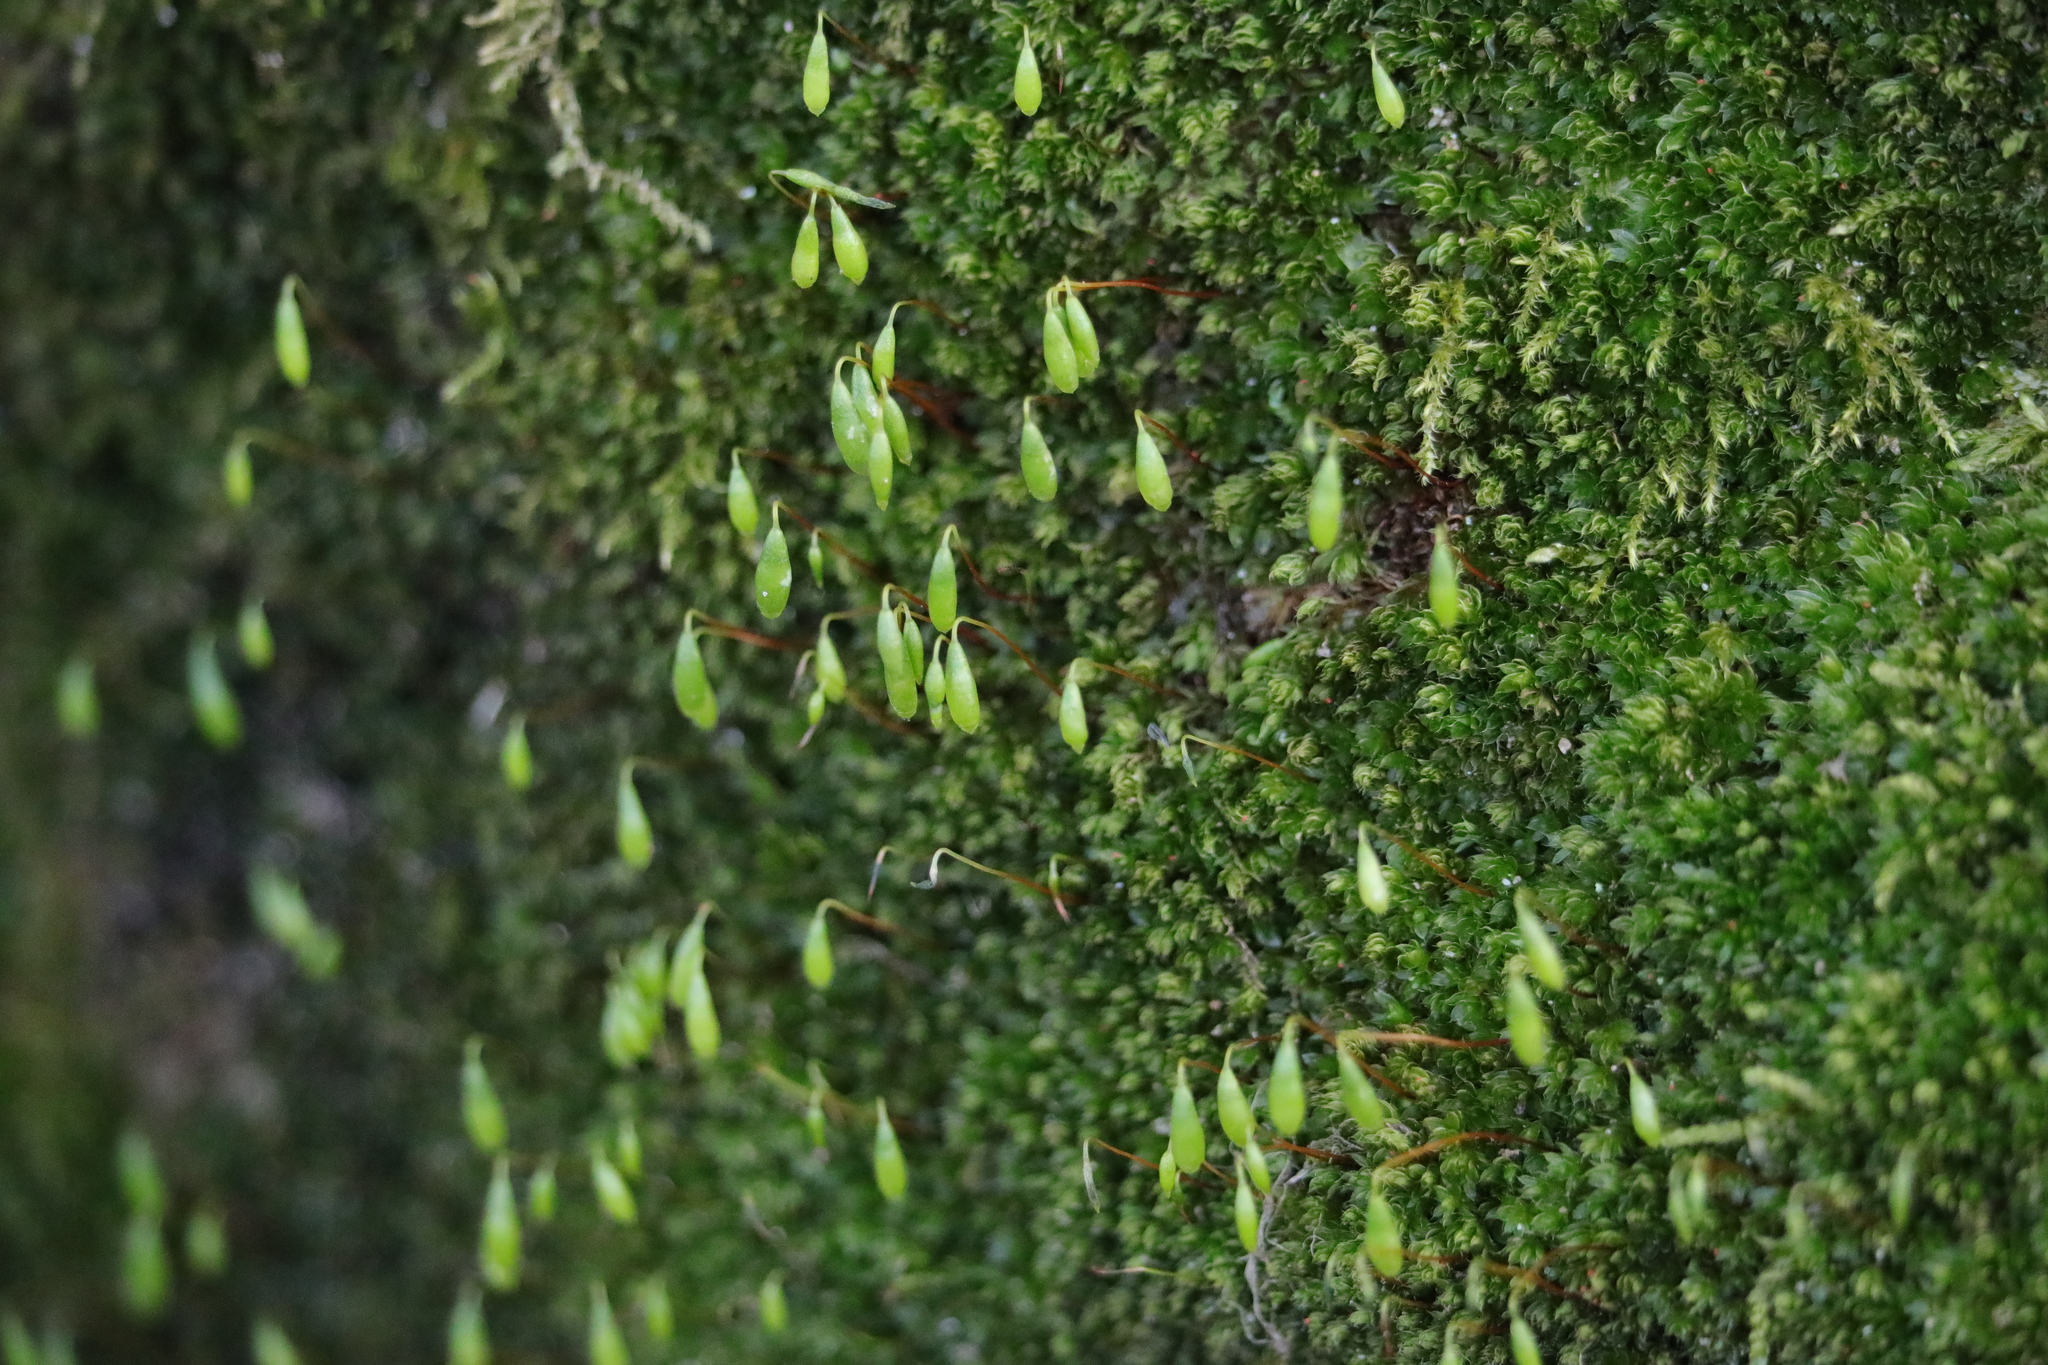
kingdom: Plantae
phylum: Bryophyta
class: Bryopsida
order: Bryales
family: Bryaceae
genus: Rosulabryum
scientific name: Rosulabryum capillare
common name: Capillary thread-moss
